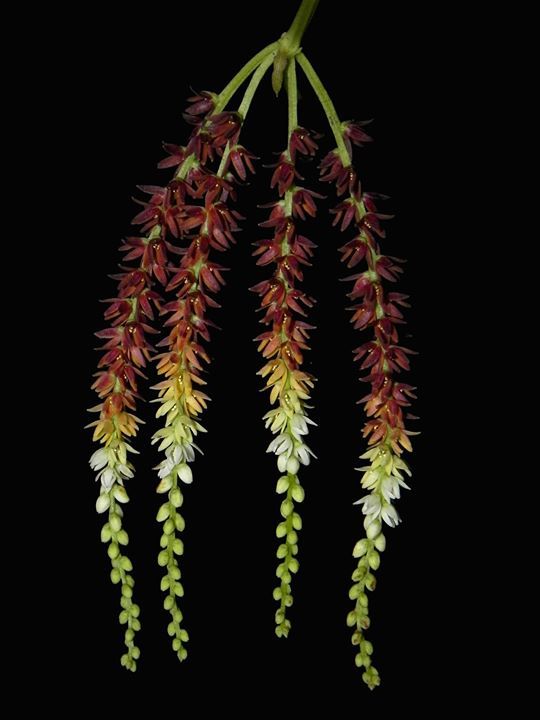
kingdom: Plantae
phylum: Tracheophyta
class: Liliopsida
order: Dioscoreales
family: Dioscoreaceae
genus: Dioscorea
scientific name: Dioscorea bulbifera
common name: Air yam
